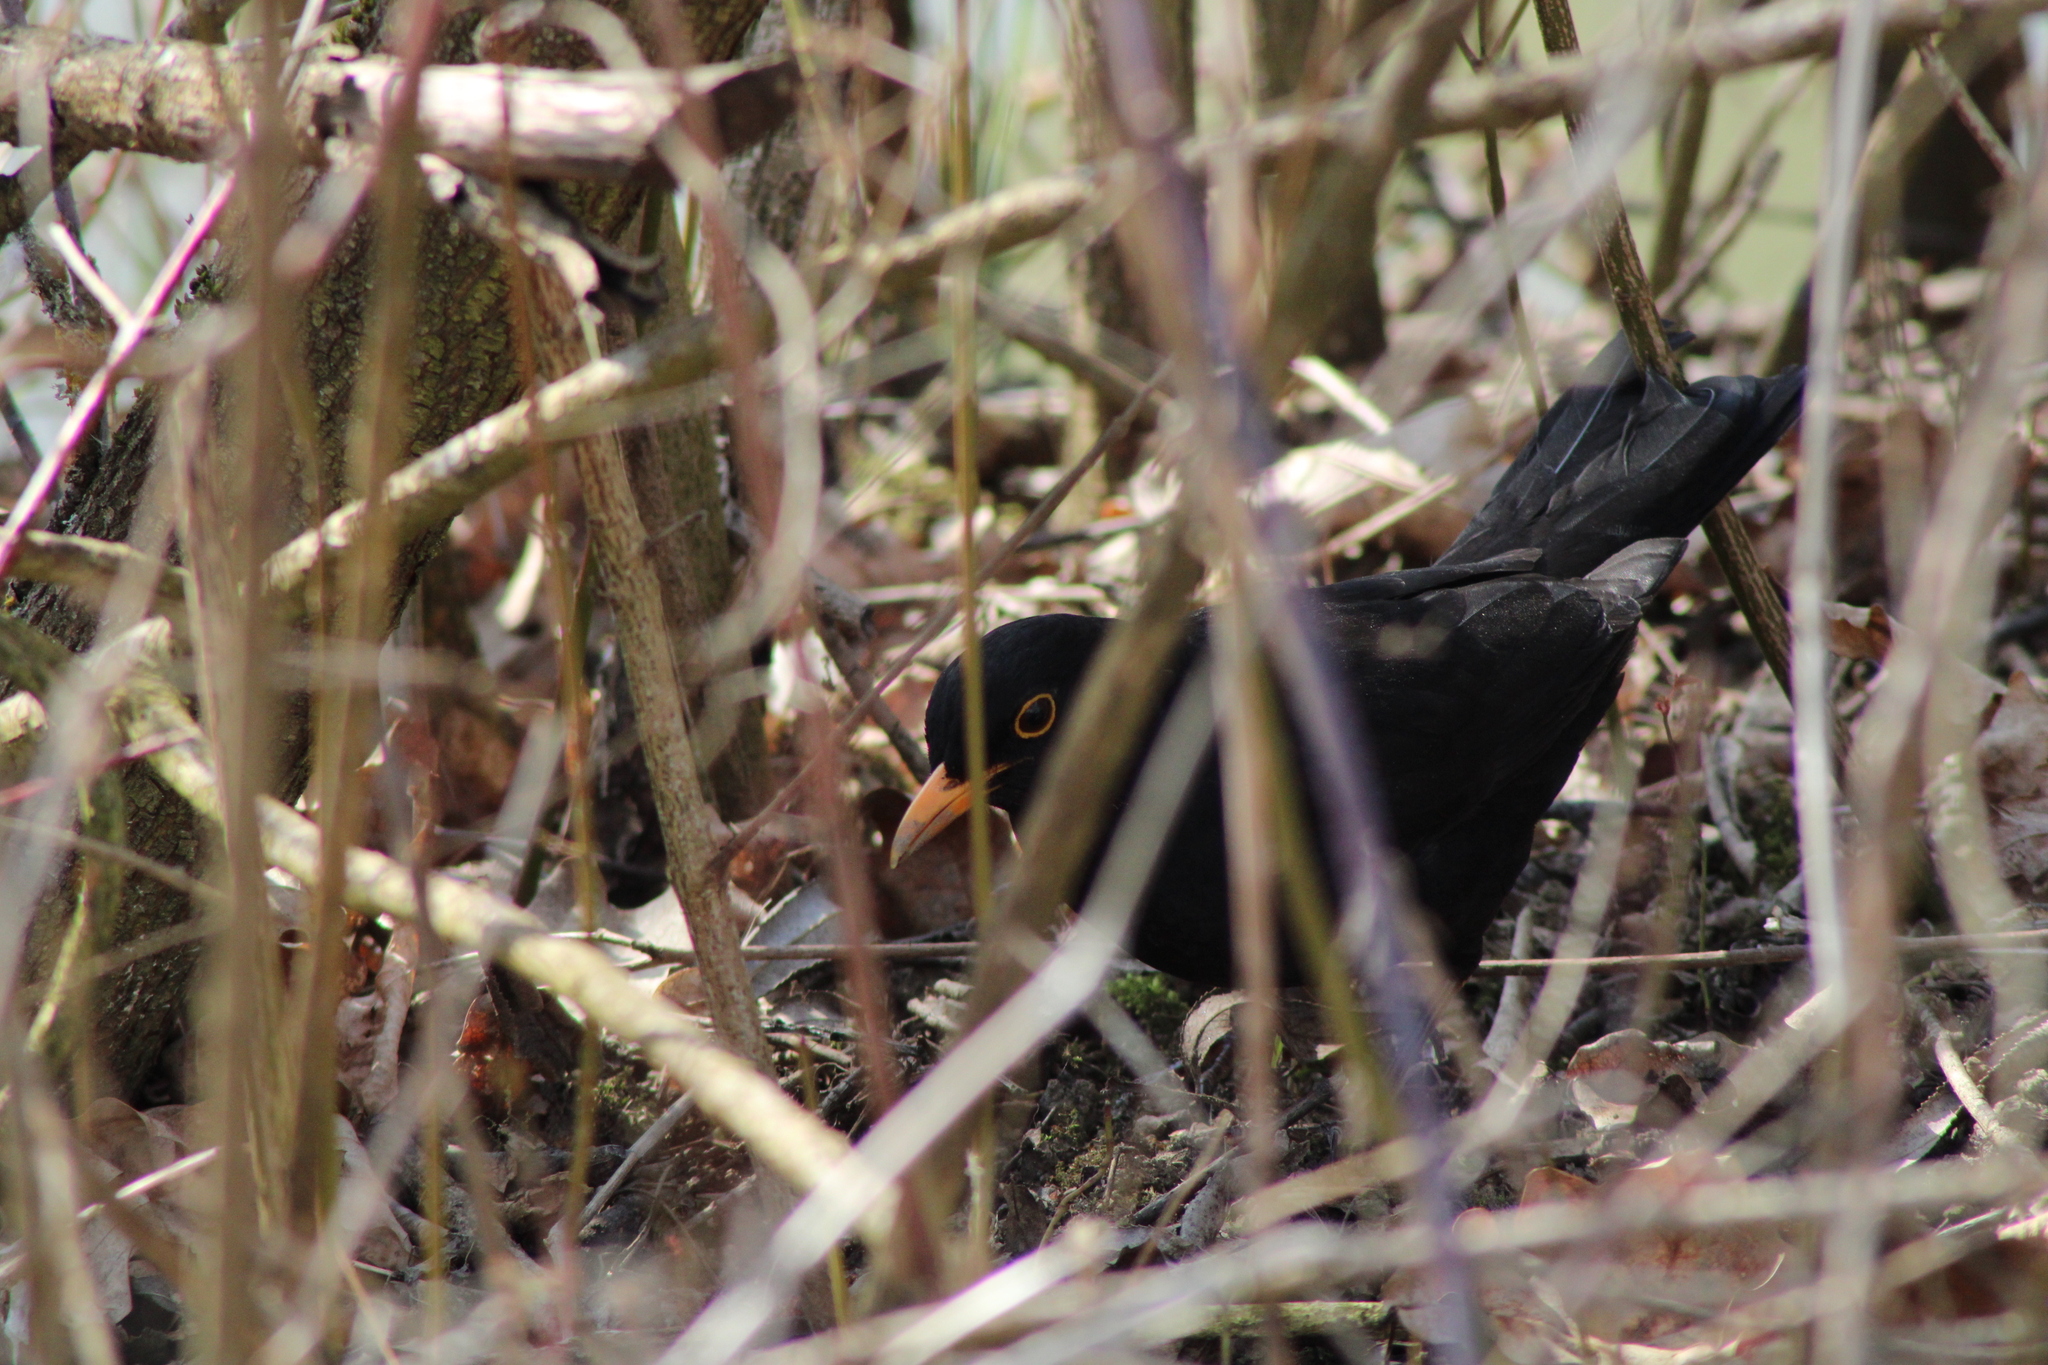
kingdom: Animalia
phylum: Chordata
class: Aves
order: Passeriformes
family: Turdidae
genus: Turdus
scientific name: Turdus merula
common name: Common blackbird
